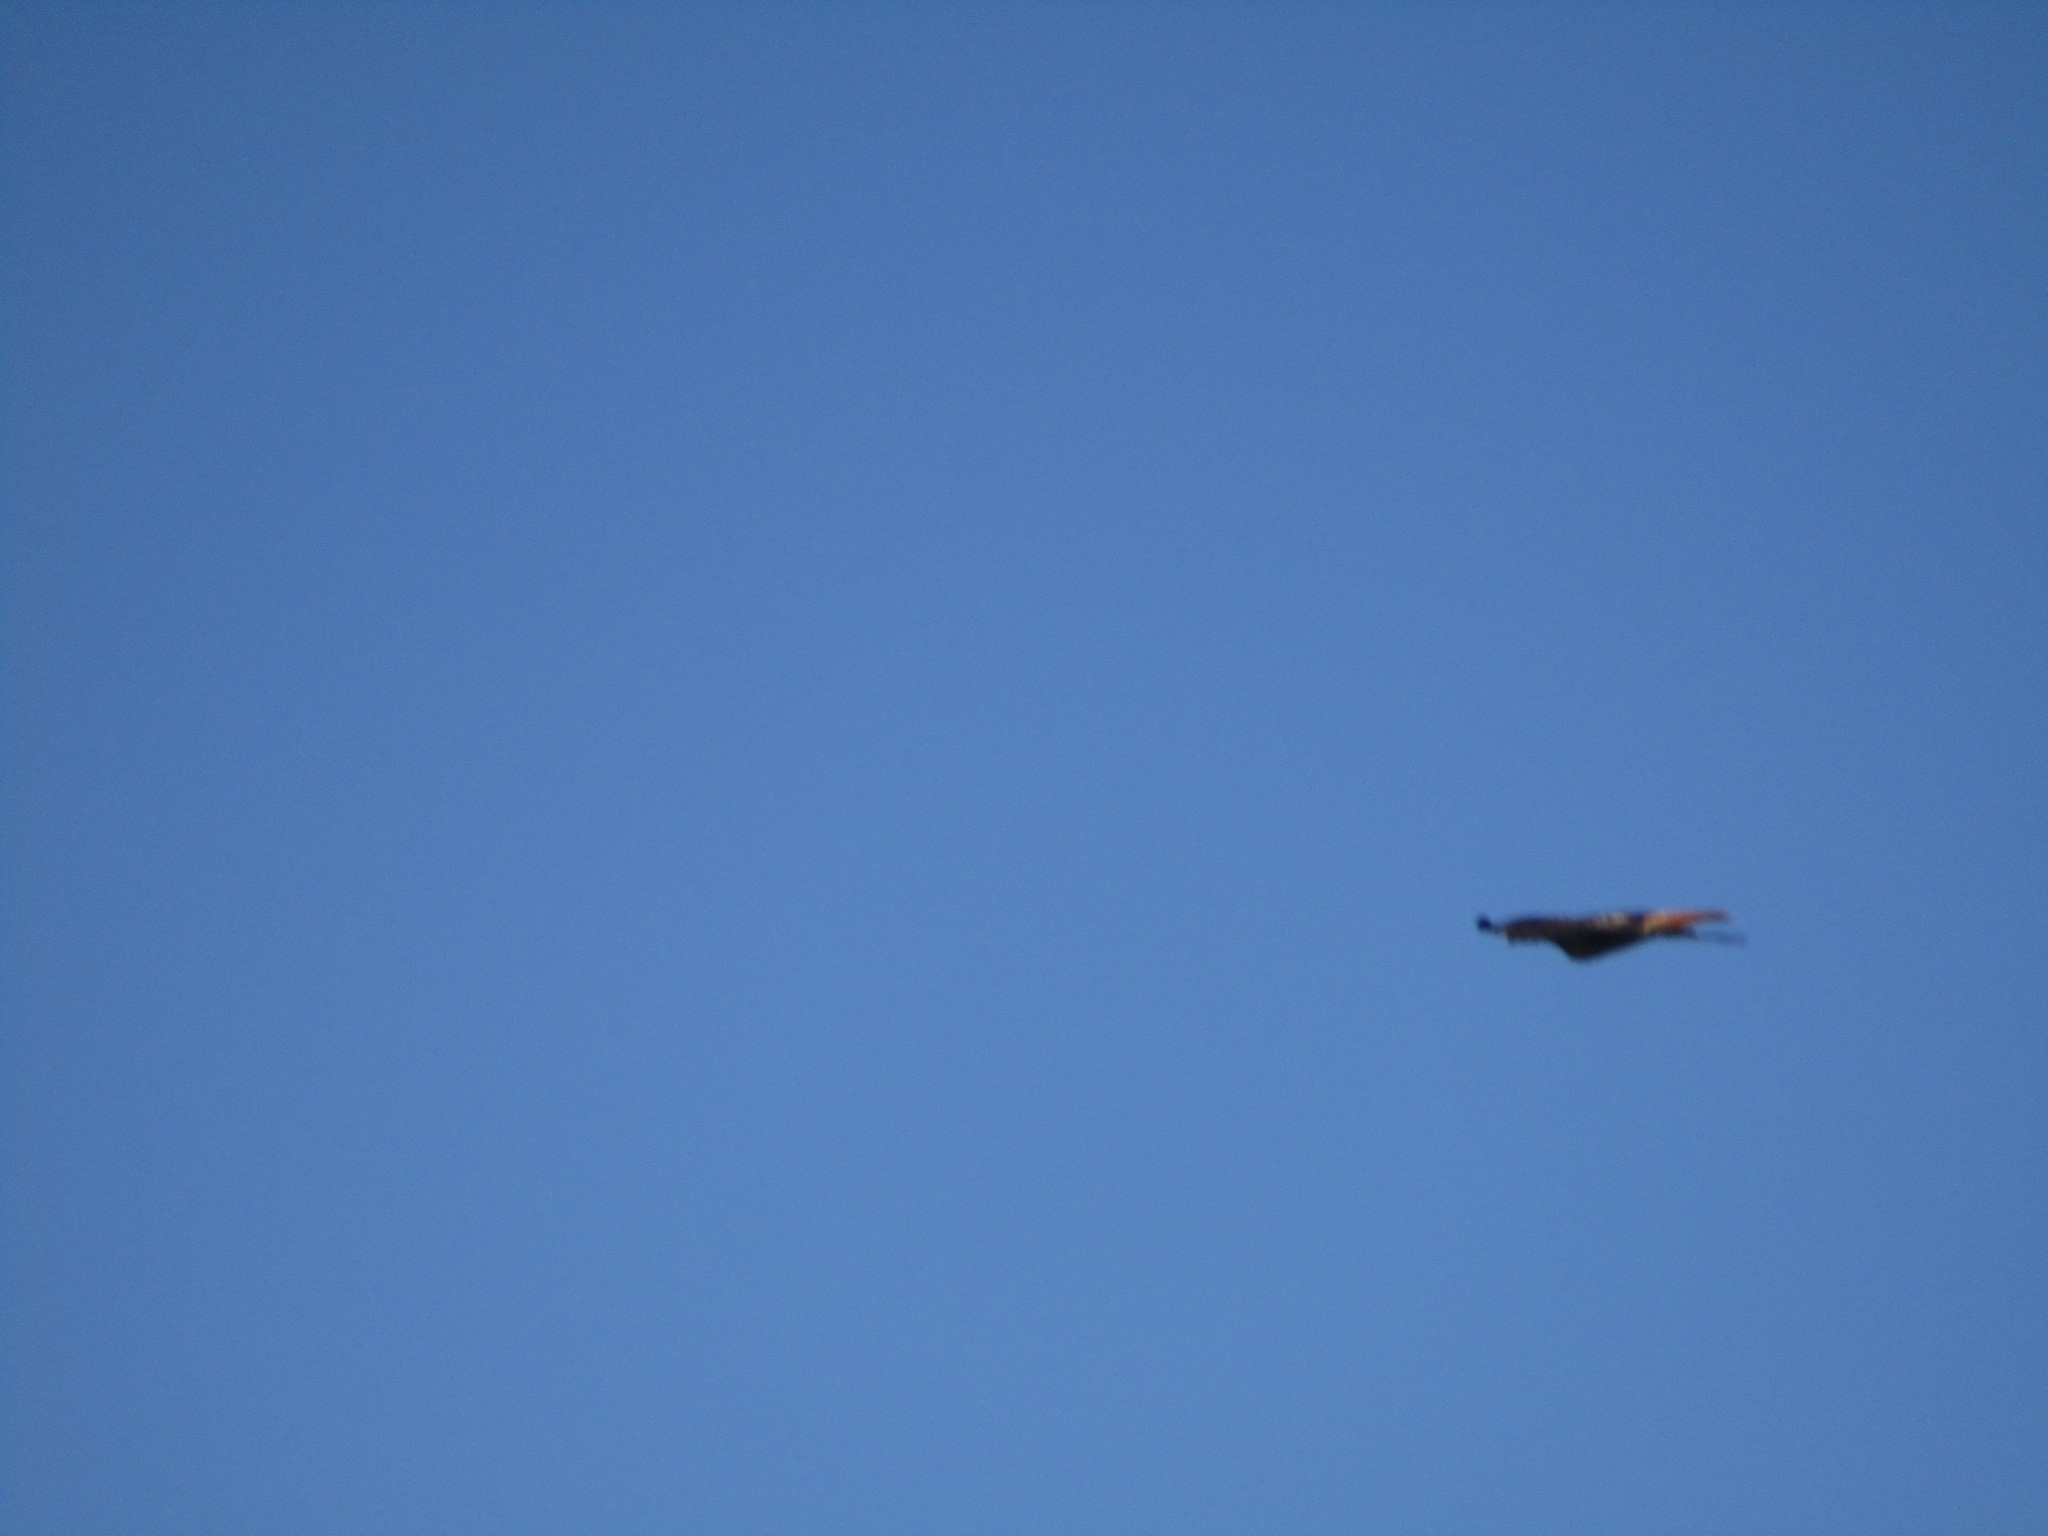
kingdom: Animalia
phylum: Chordata
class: Aves
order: Accipitriformes
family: Accipitridae
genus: Buteo
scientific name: Buteo jamaicensis
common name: Red-tailed hawk
